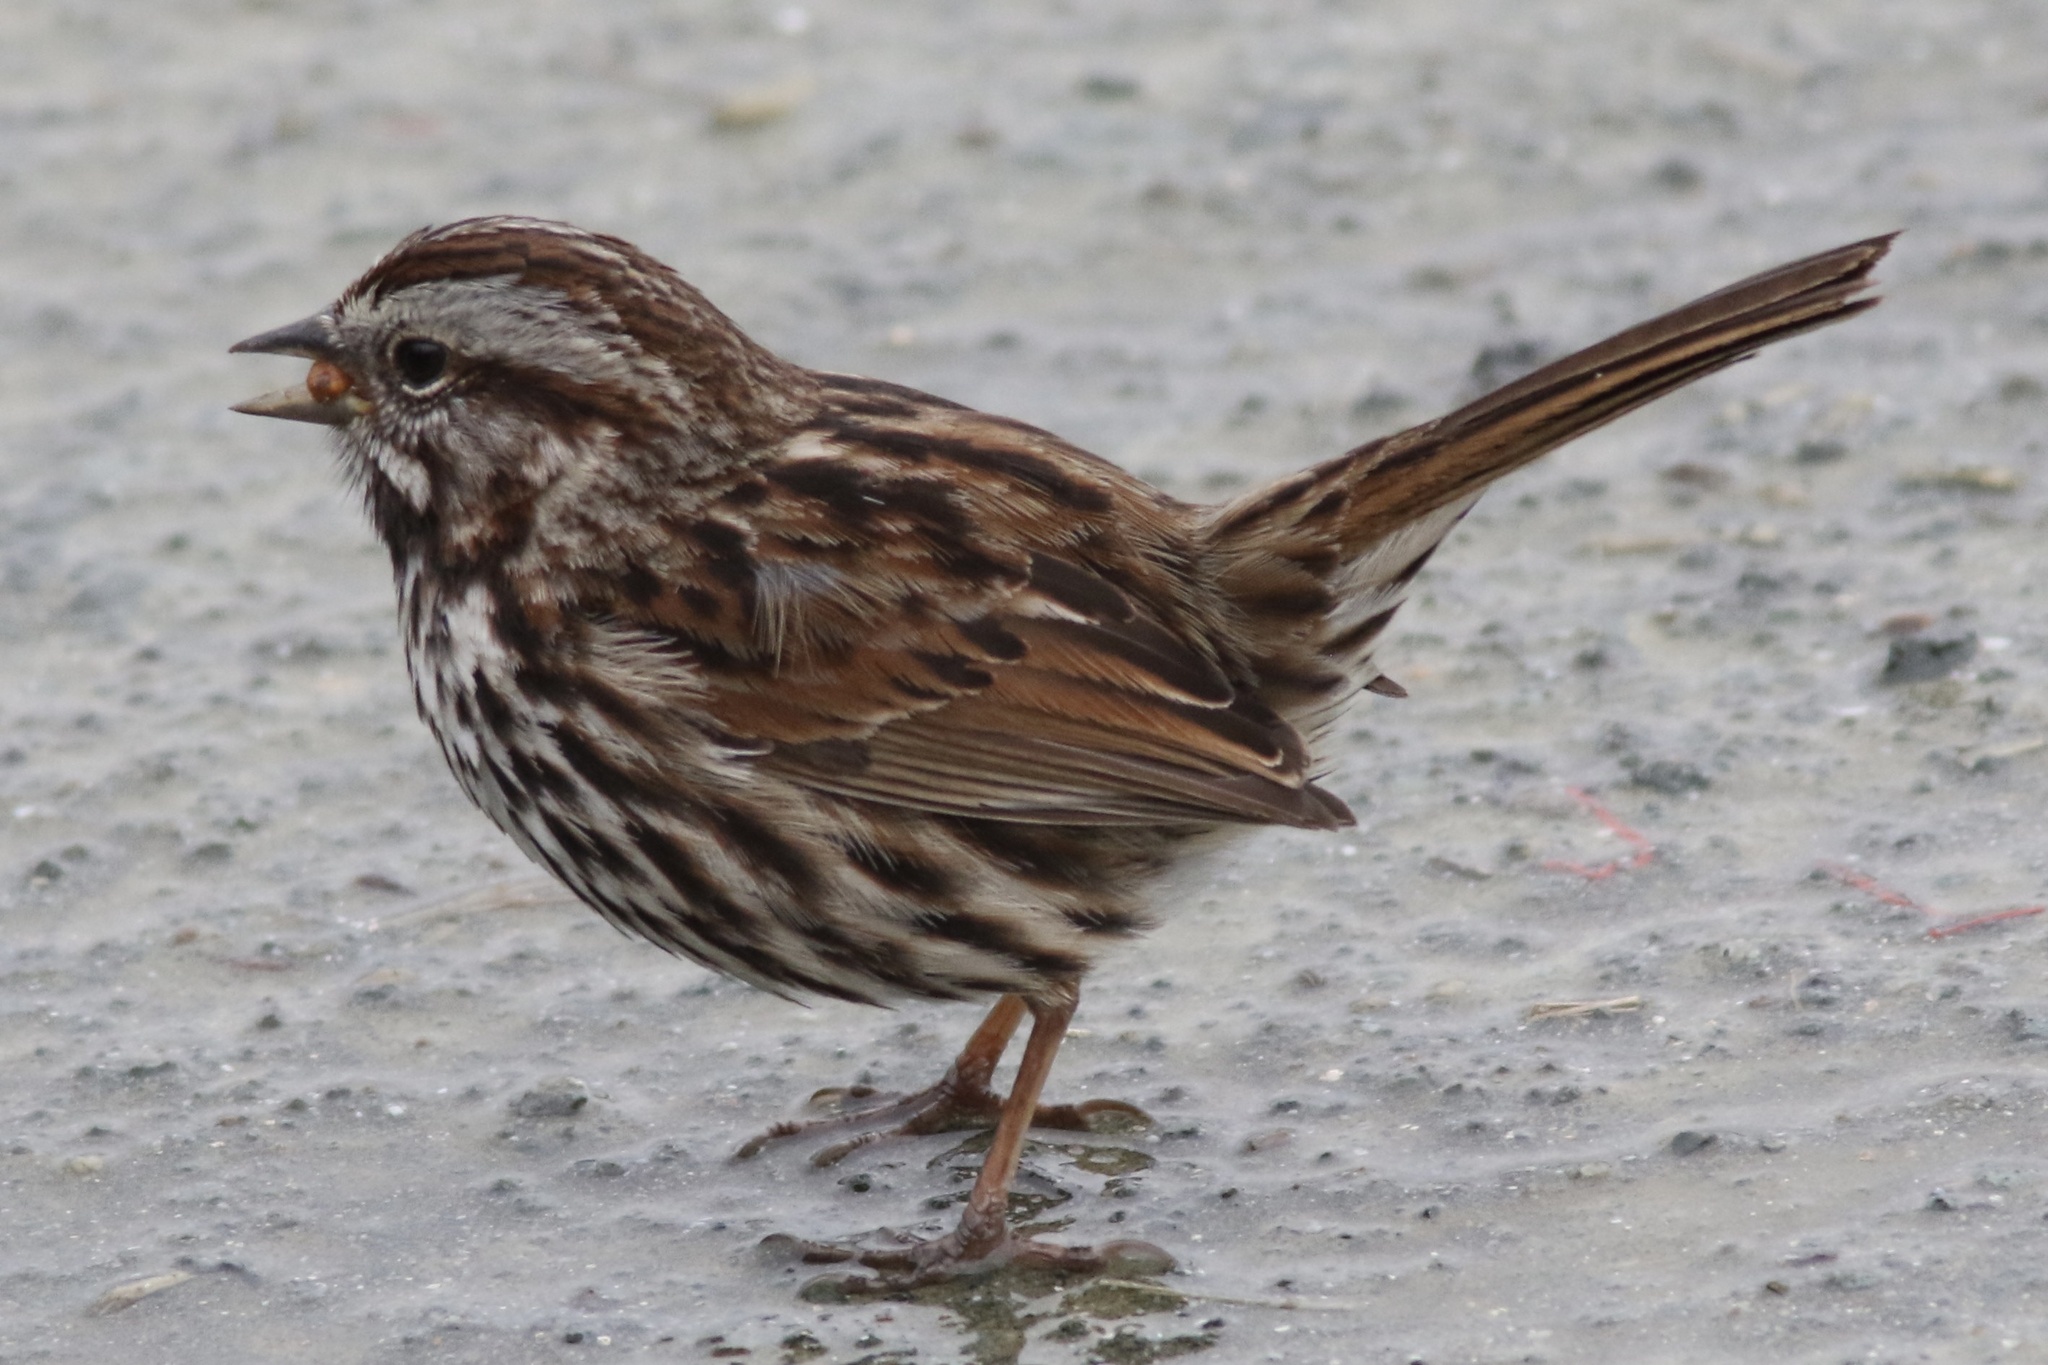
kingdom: Animalia
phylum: Chordata
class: Aves
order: Passeriformes
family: Passerellidae
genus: Melospiza
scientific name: Melospiza melodia
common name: Song sparrow
